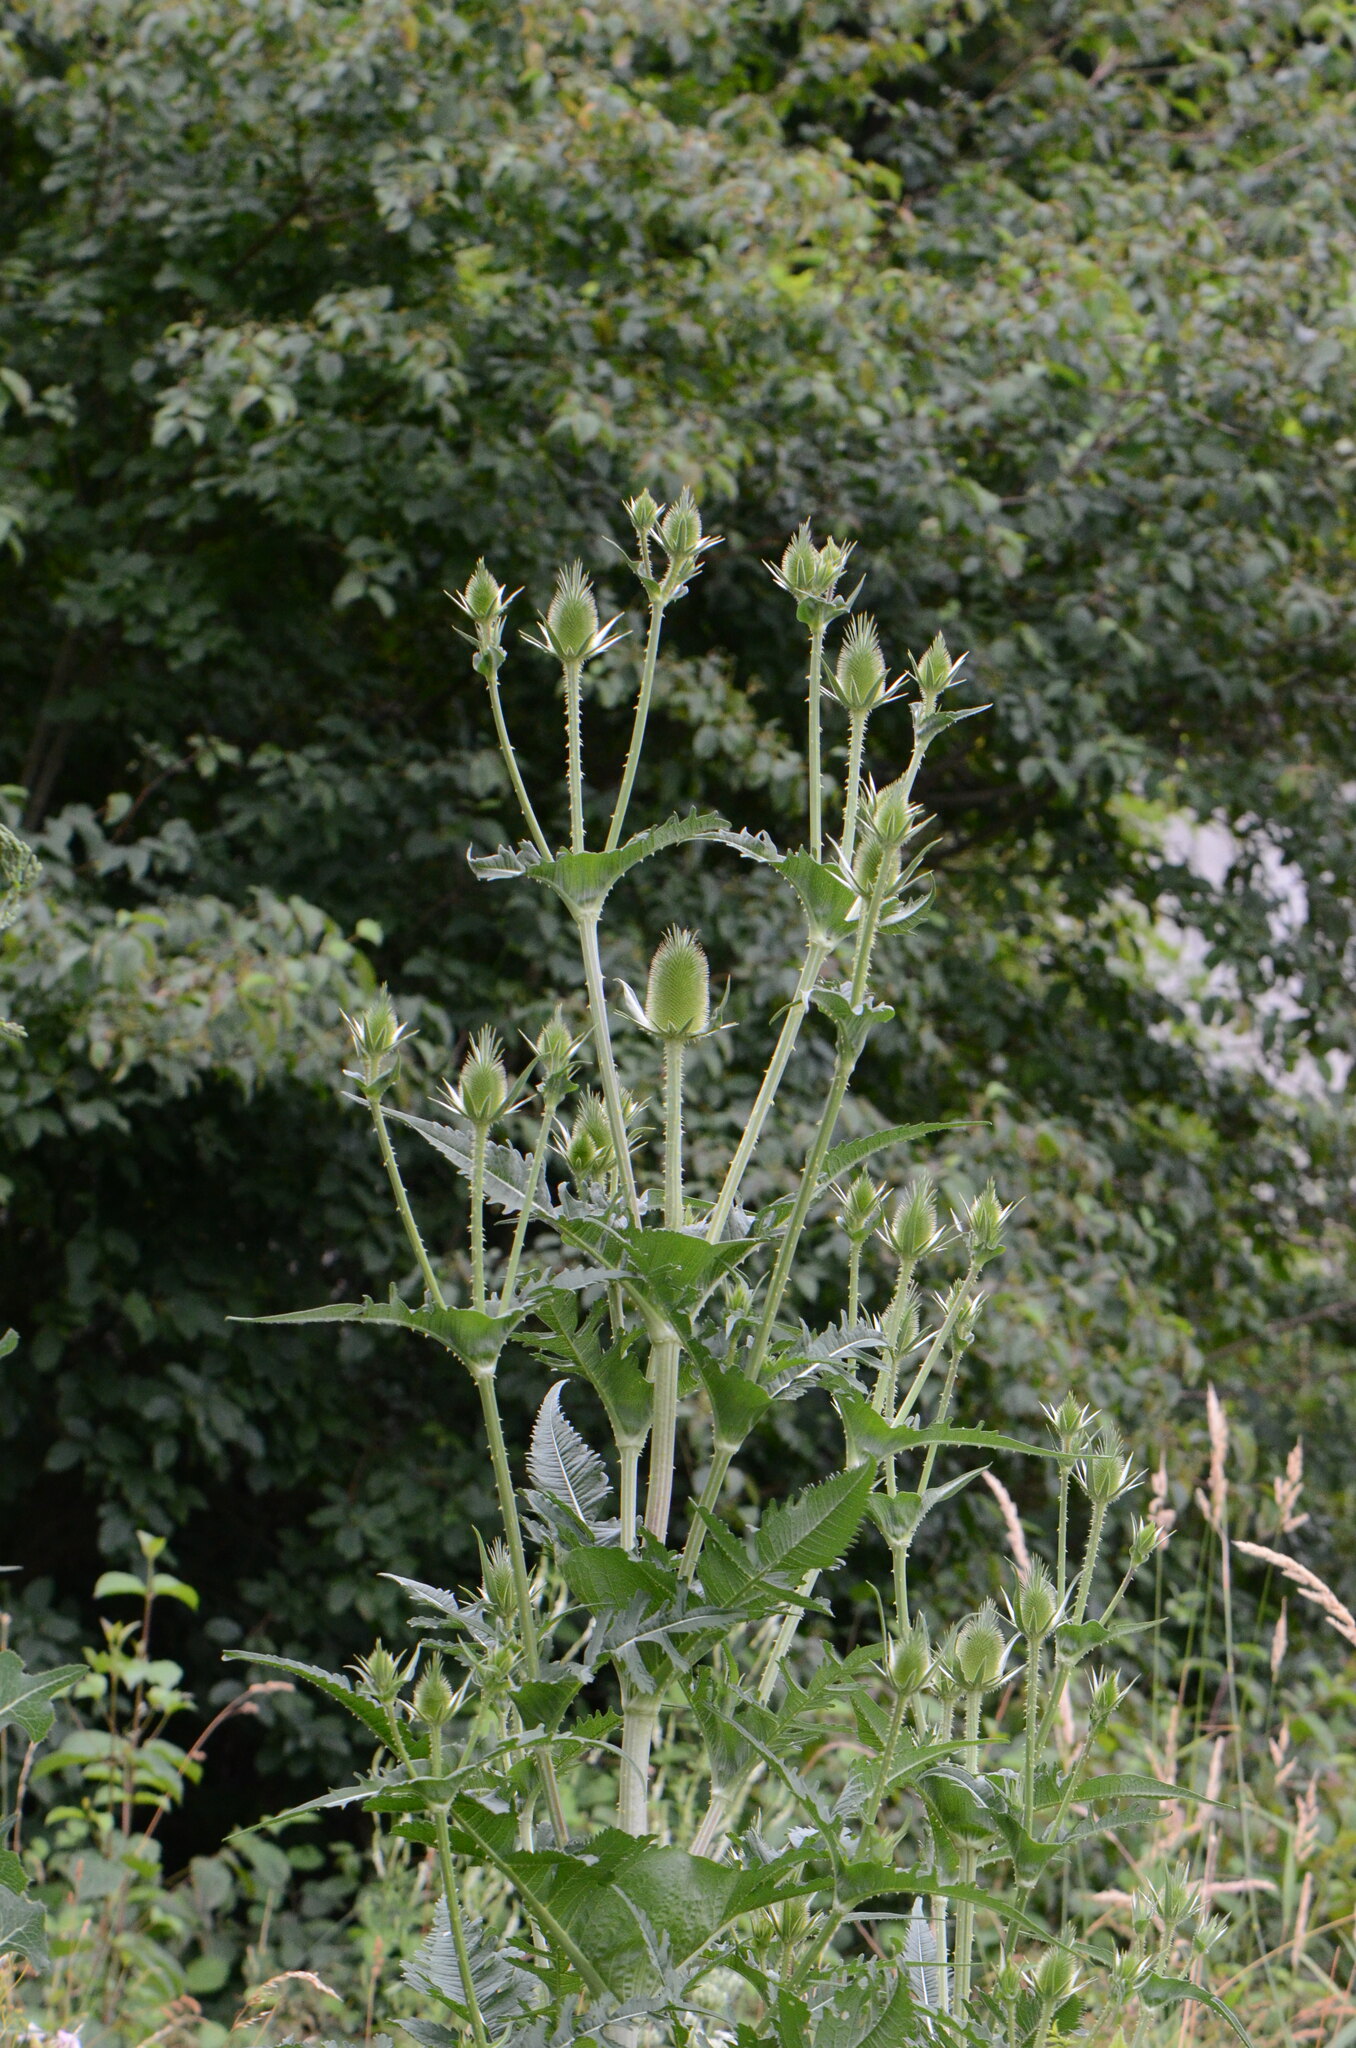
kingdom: Plantae
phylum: Tracheophyta
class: Magnoliopsida
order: Dipsacales
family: Caprifoliaceae
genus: Dipsacus
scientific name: Dipsacus laciniatus
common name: Cut-leaved teasel
